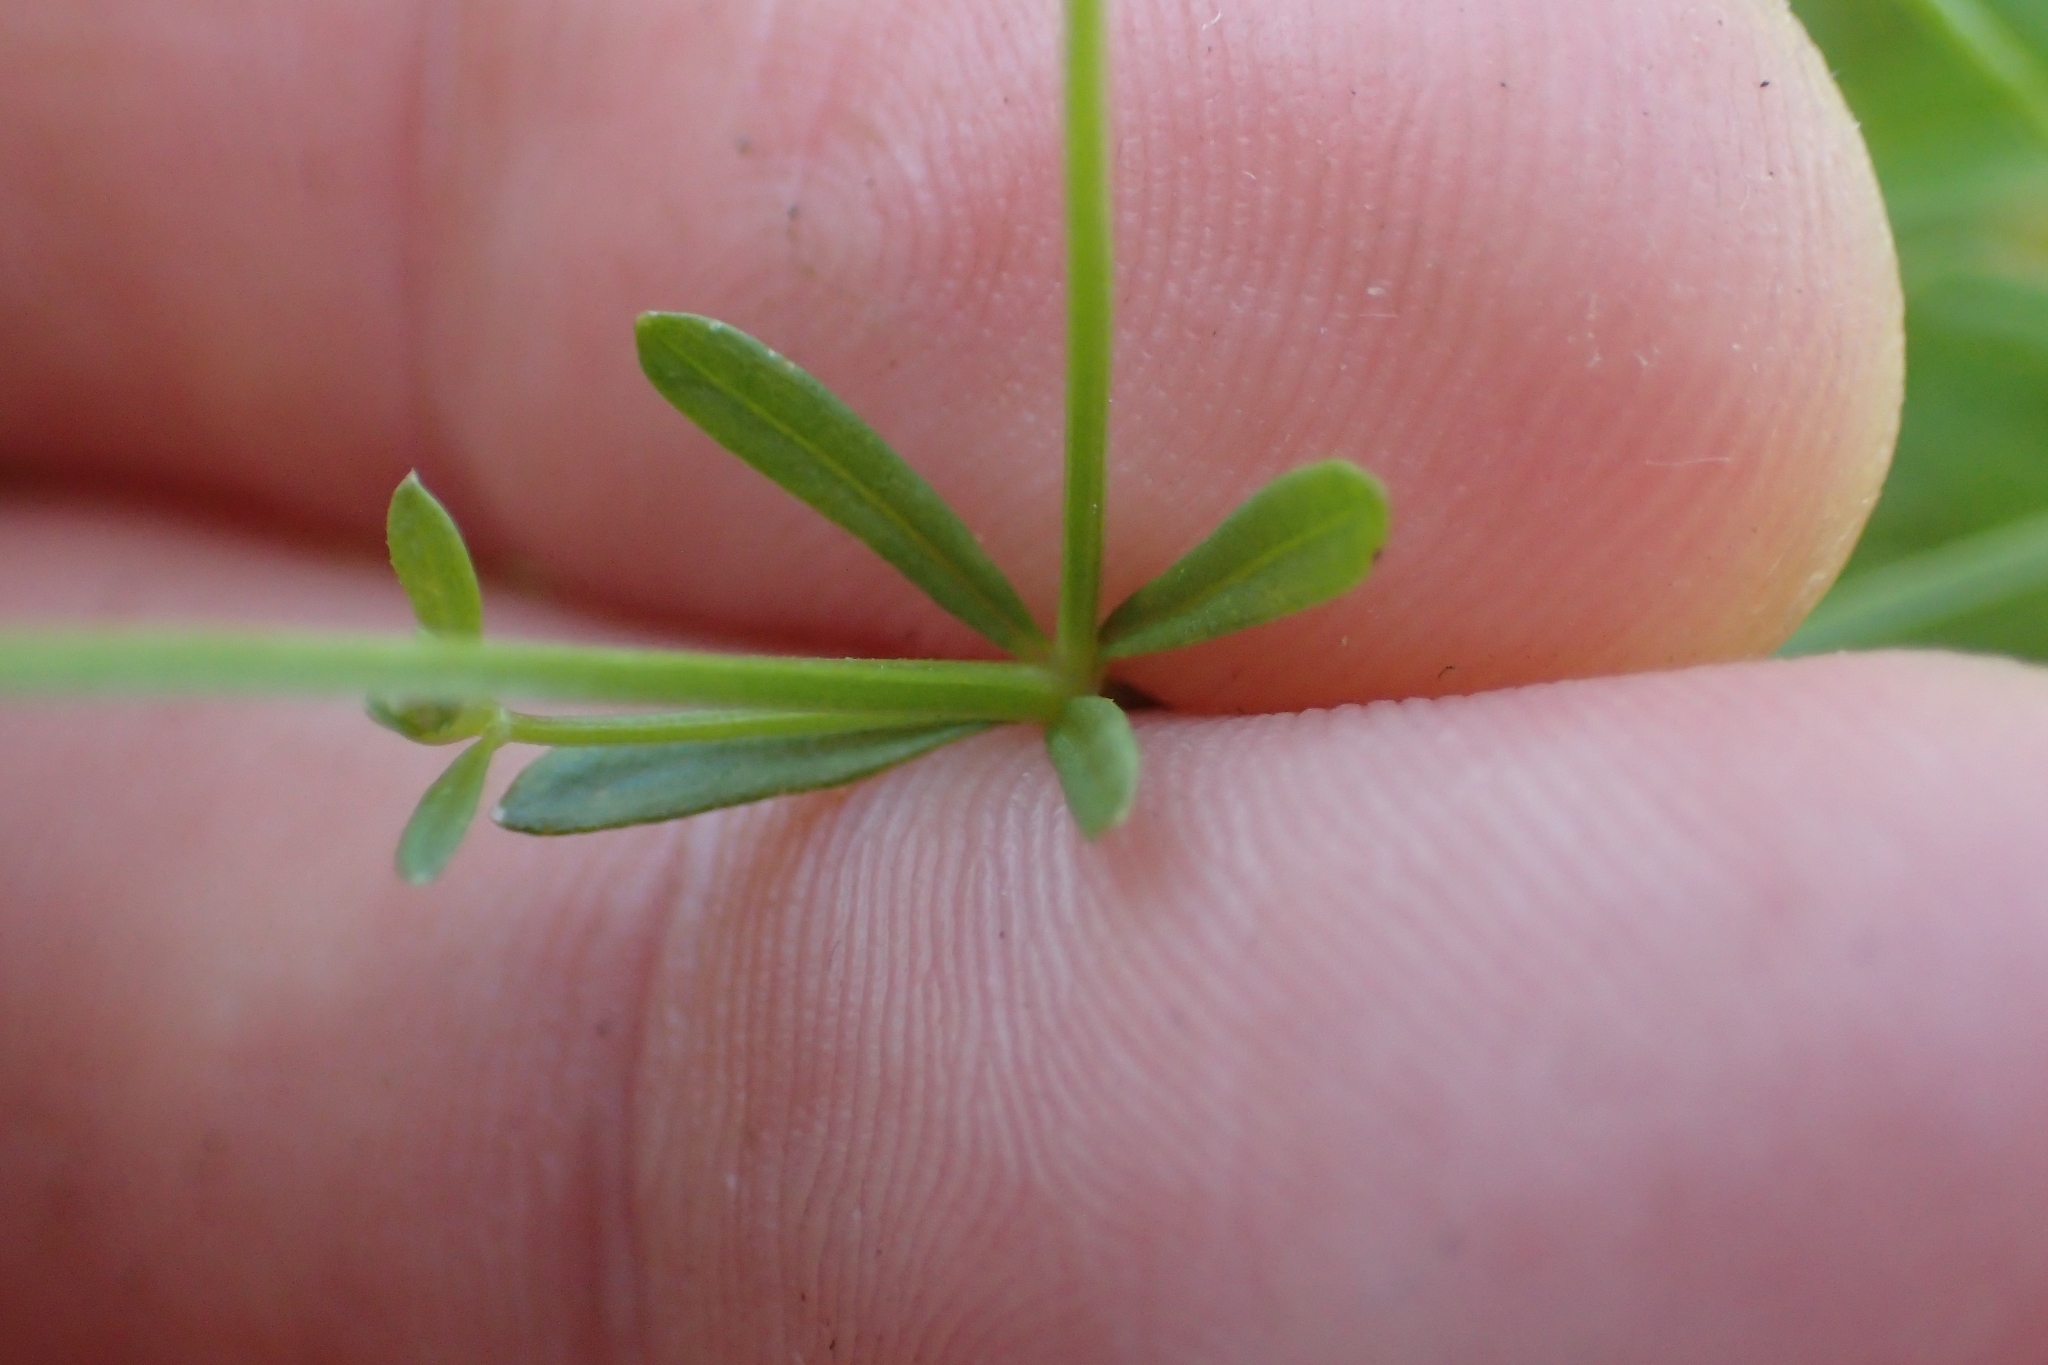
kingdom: Plantae
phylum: Tracheophyta
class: Magnoliopsida
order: Gentianales
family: Rubiaceae
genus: Galium
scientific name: Galium palustre
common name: Common marsh-bedstraw
